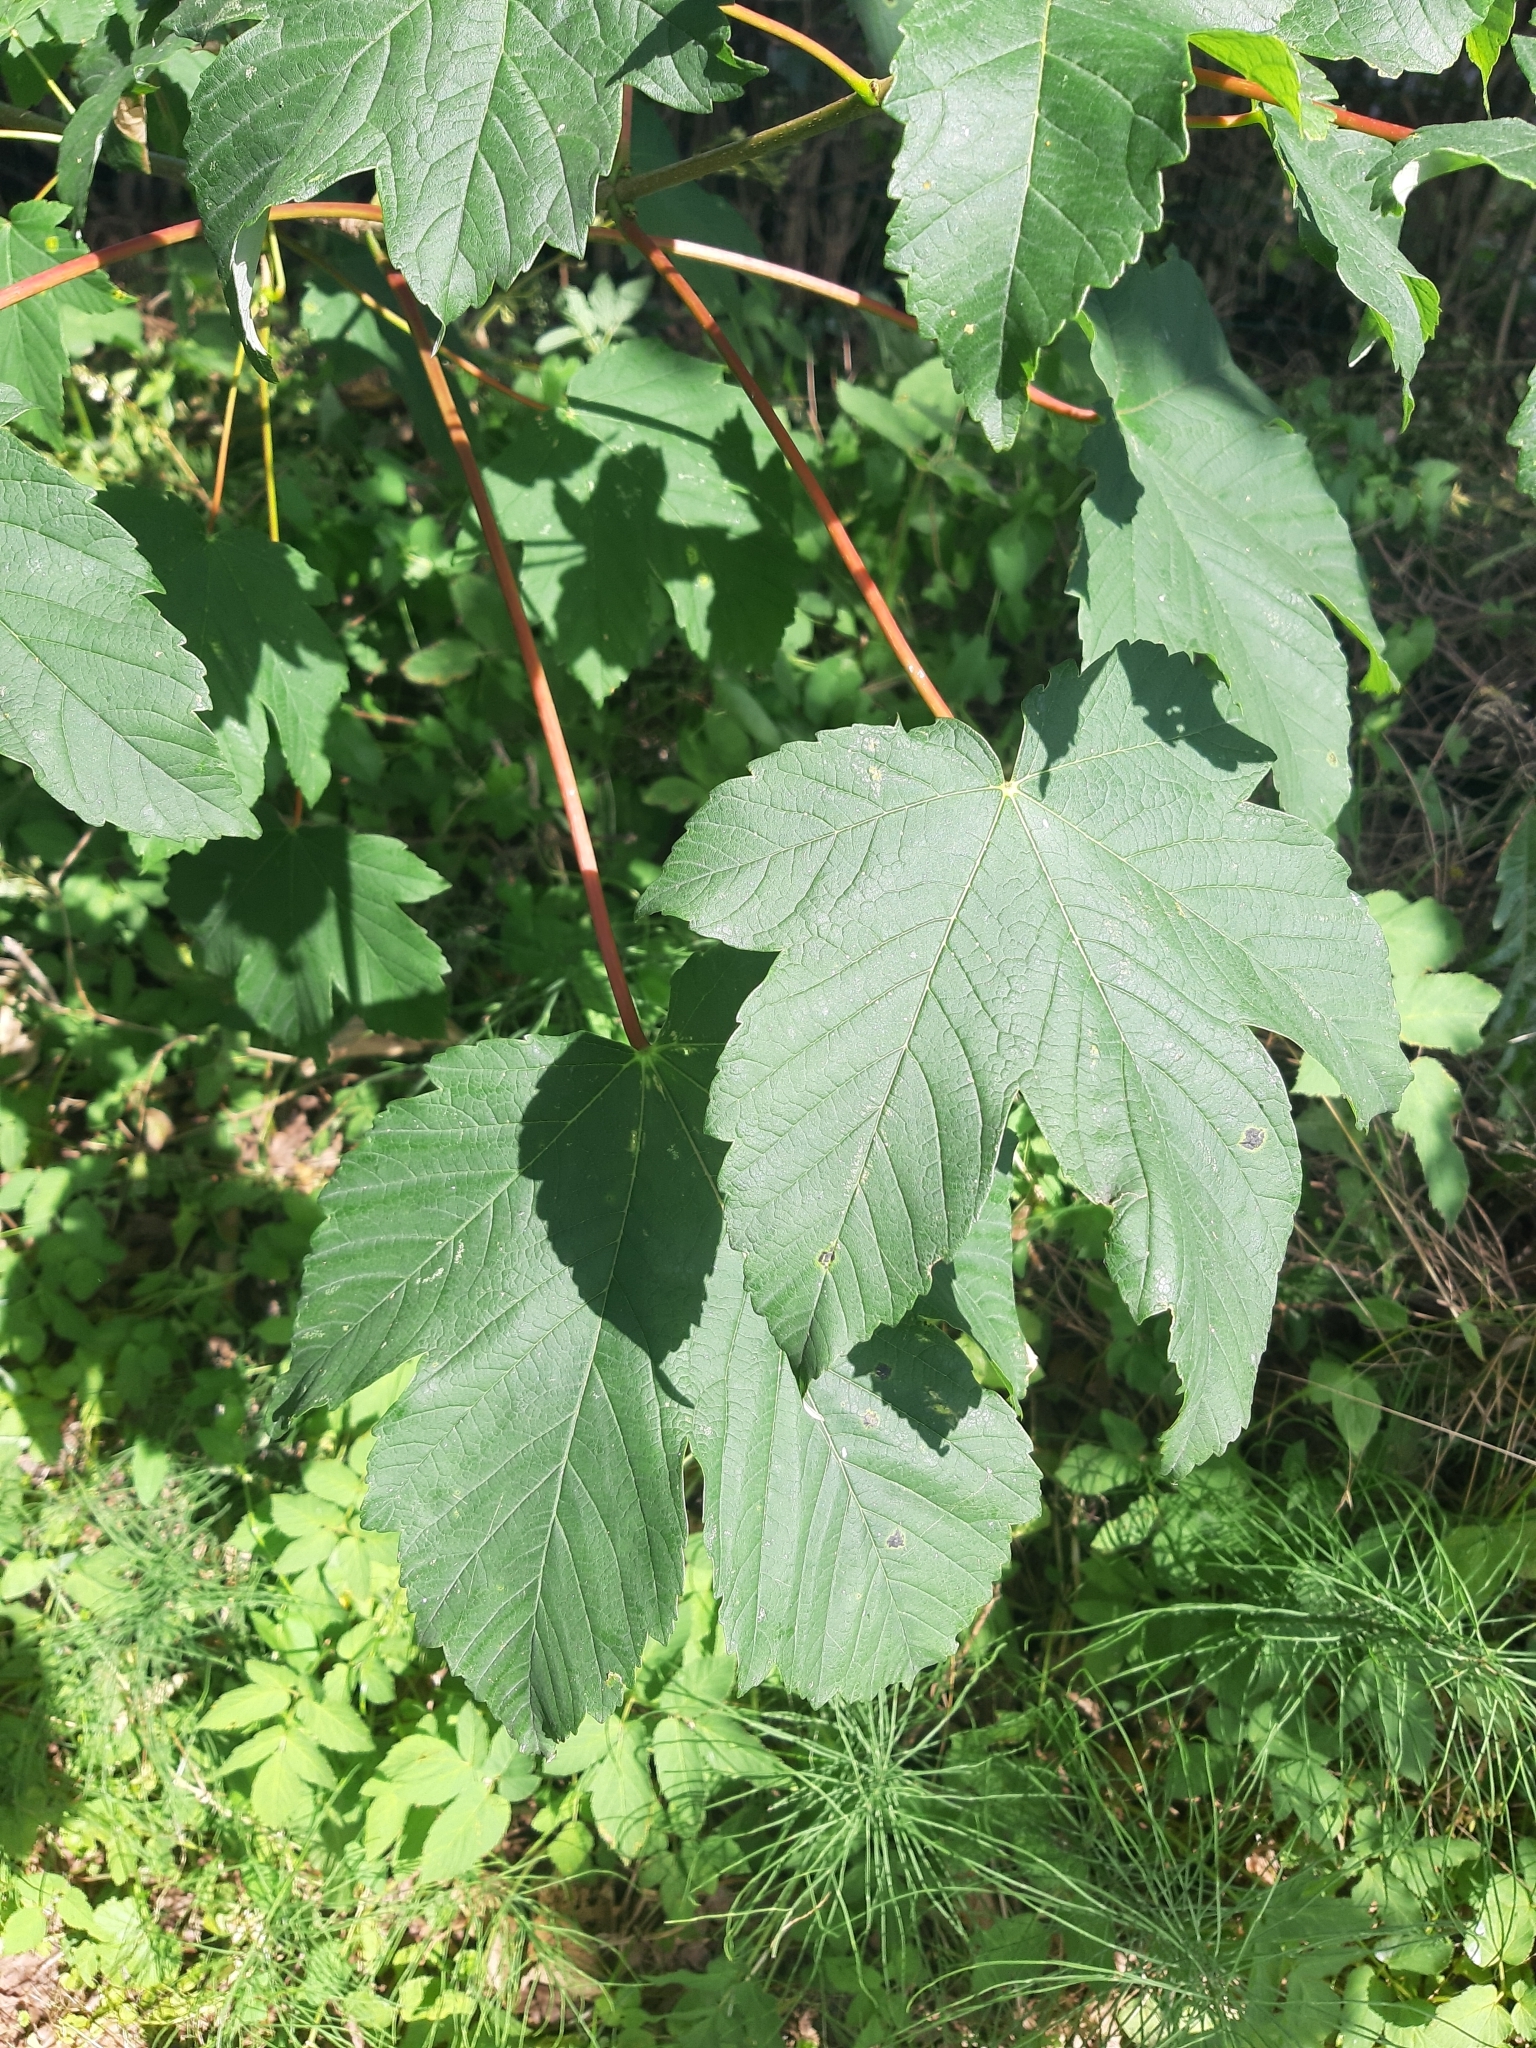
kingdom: Plantae
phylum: Tracheophyta
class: Magnoliopsida
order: Sapindales
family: Sapindaceae
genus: Acer
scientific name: Acer pseudoplatanus
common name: Sycamore
